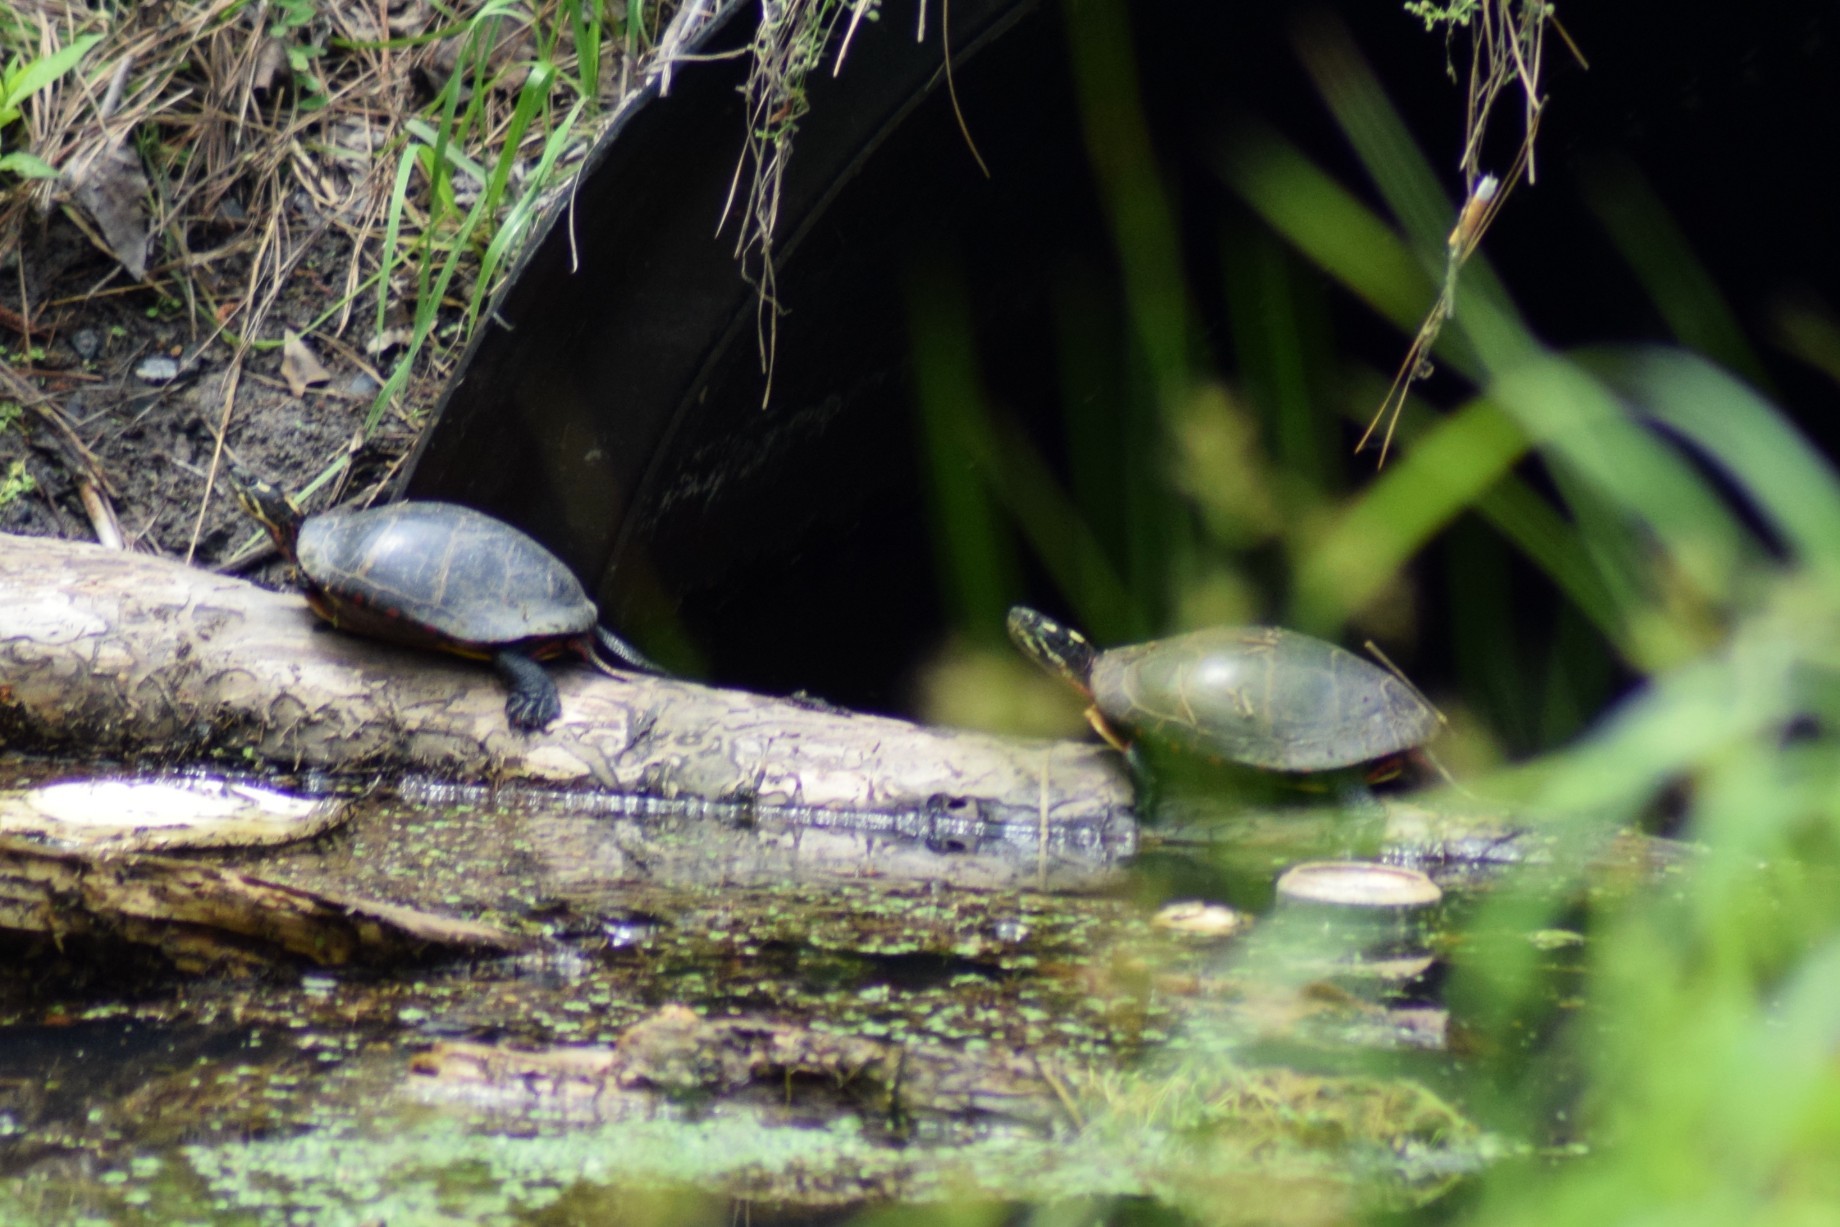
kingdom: Animalia
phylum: Chordata
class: Testudines
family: Emydidae
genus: Chrysemys
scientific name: Chrysemys picta
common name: Painted turtle
